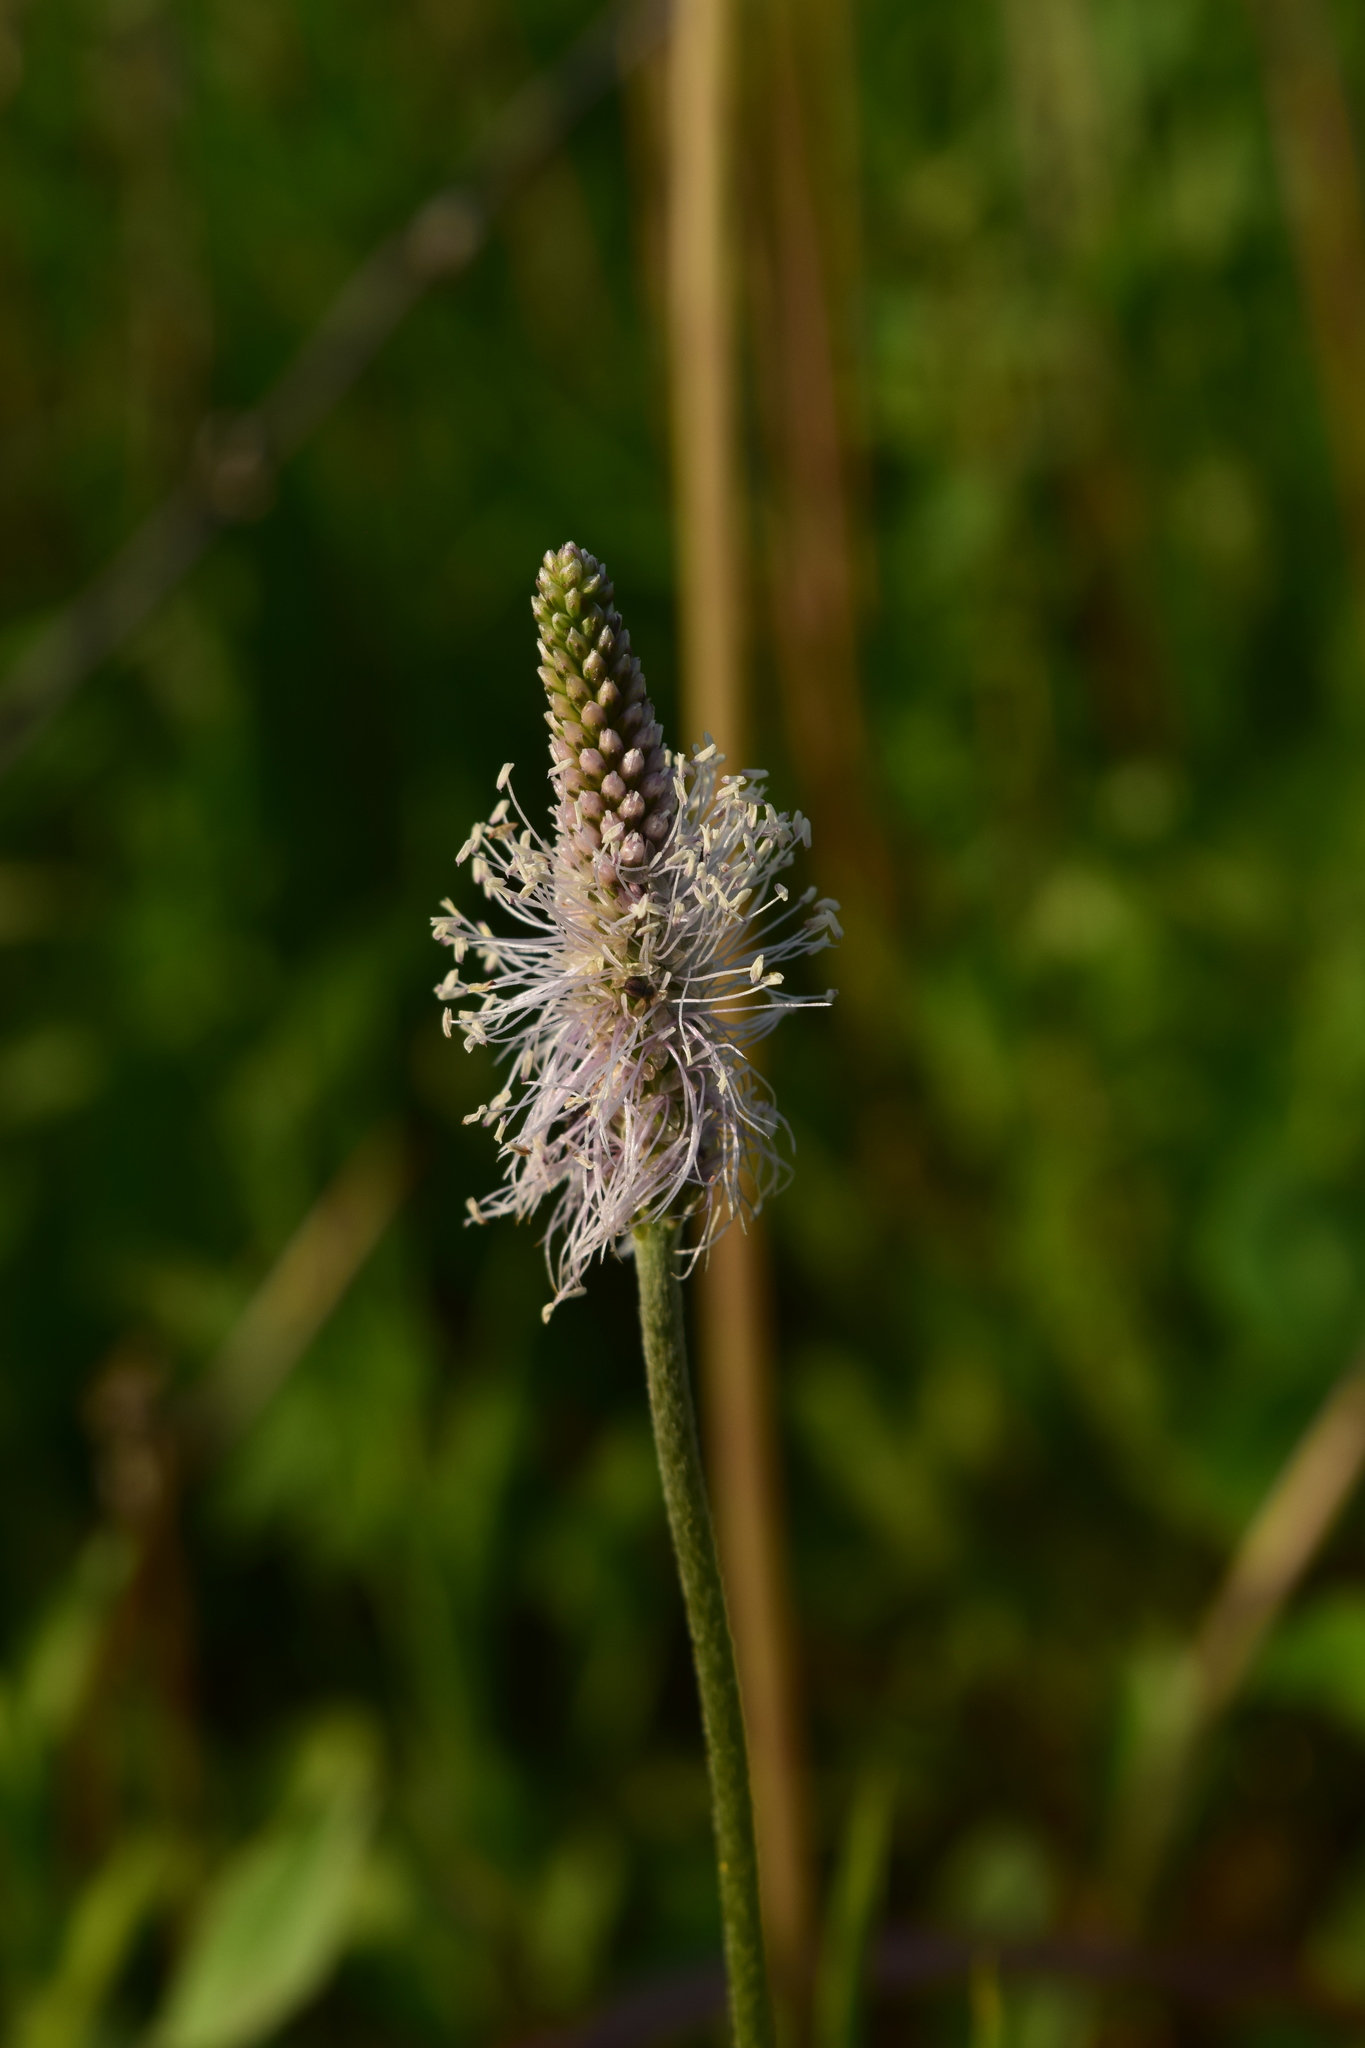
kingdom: Plantae
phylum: Tracheophyta
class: Magnoliopsida
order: Lamiales
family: Plantaginaceae
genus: Plantago
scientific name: Plantago media
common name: Hoary plantain
